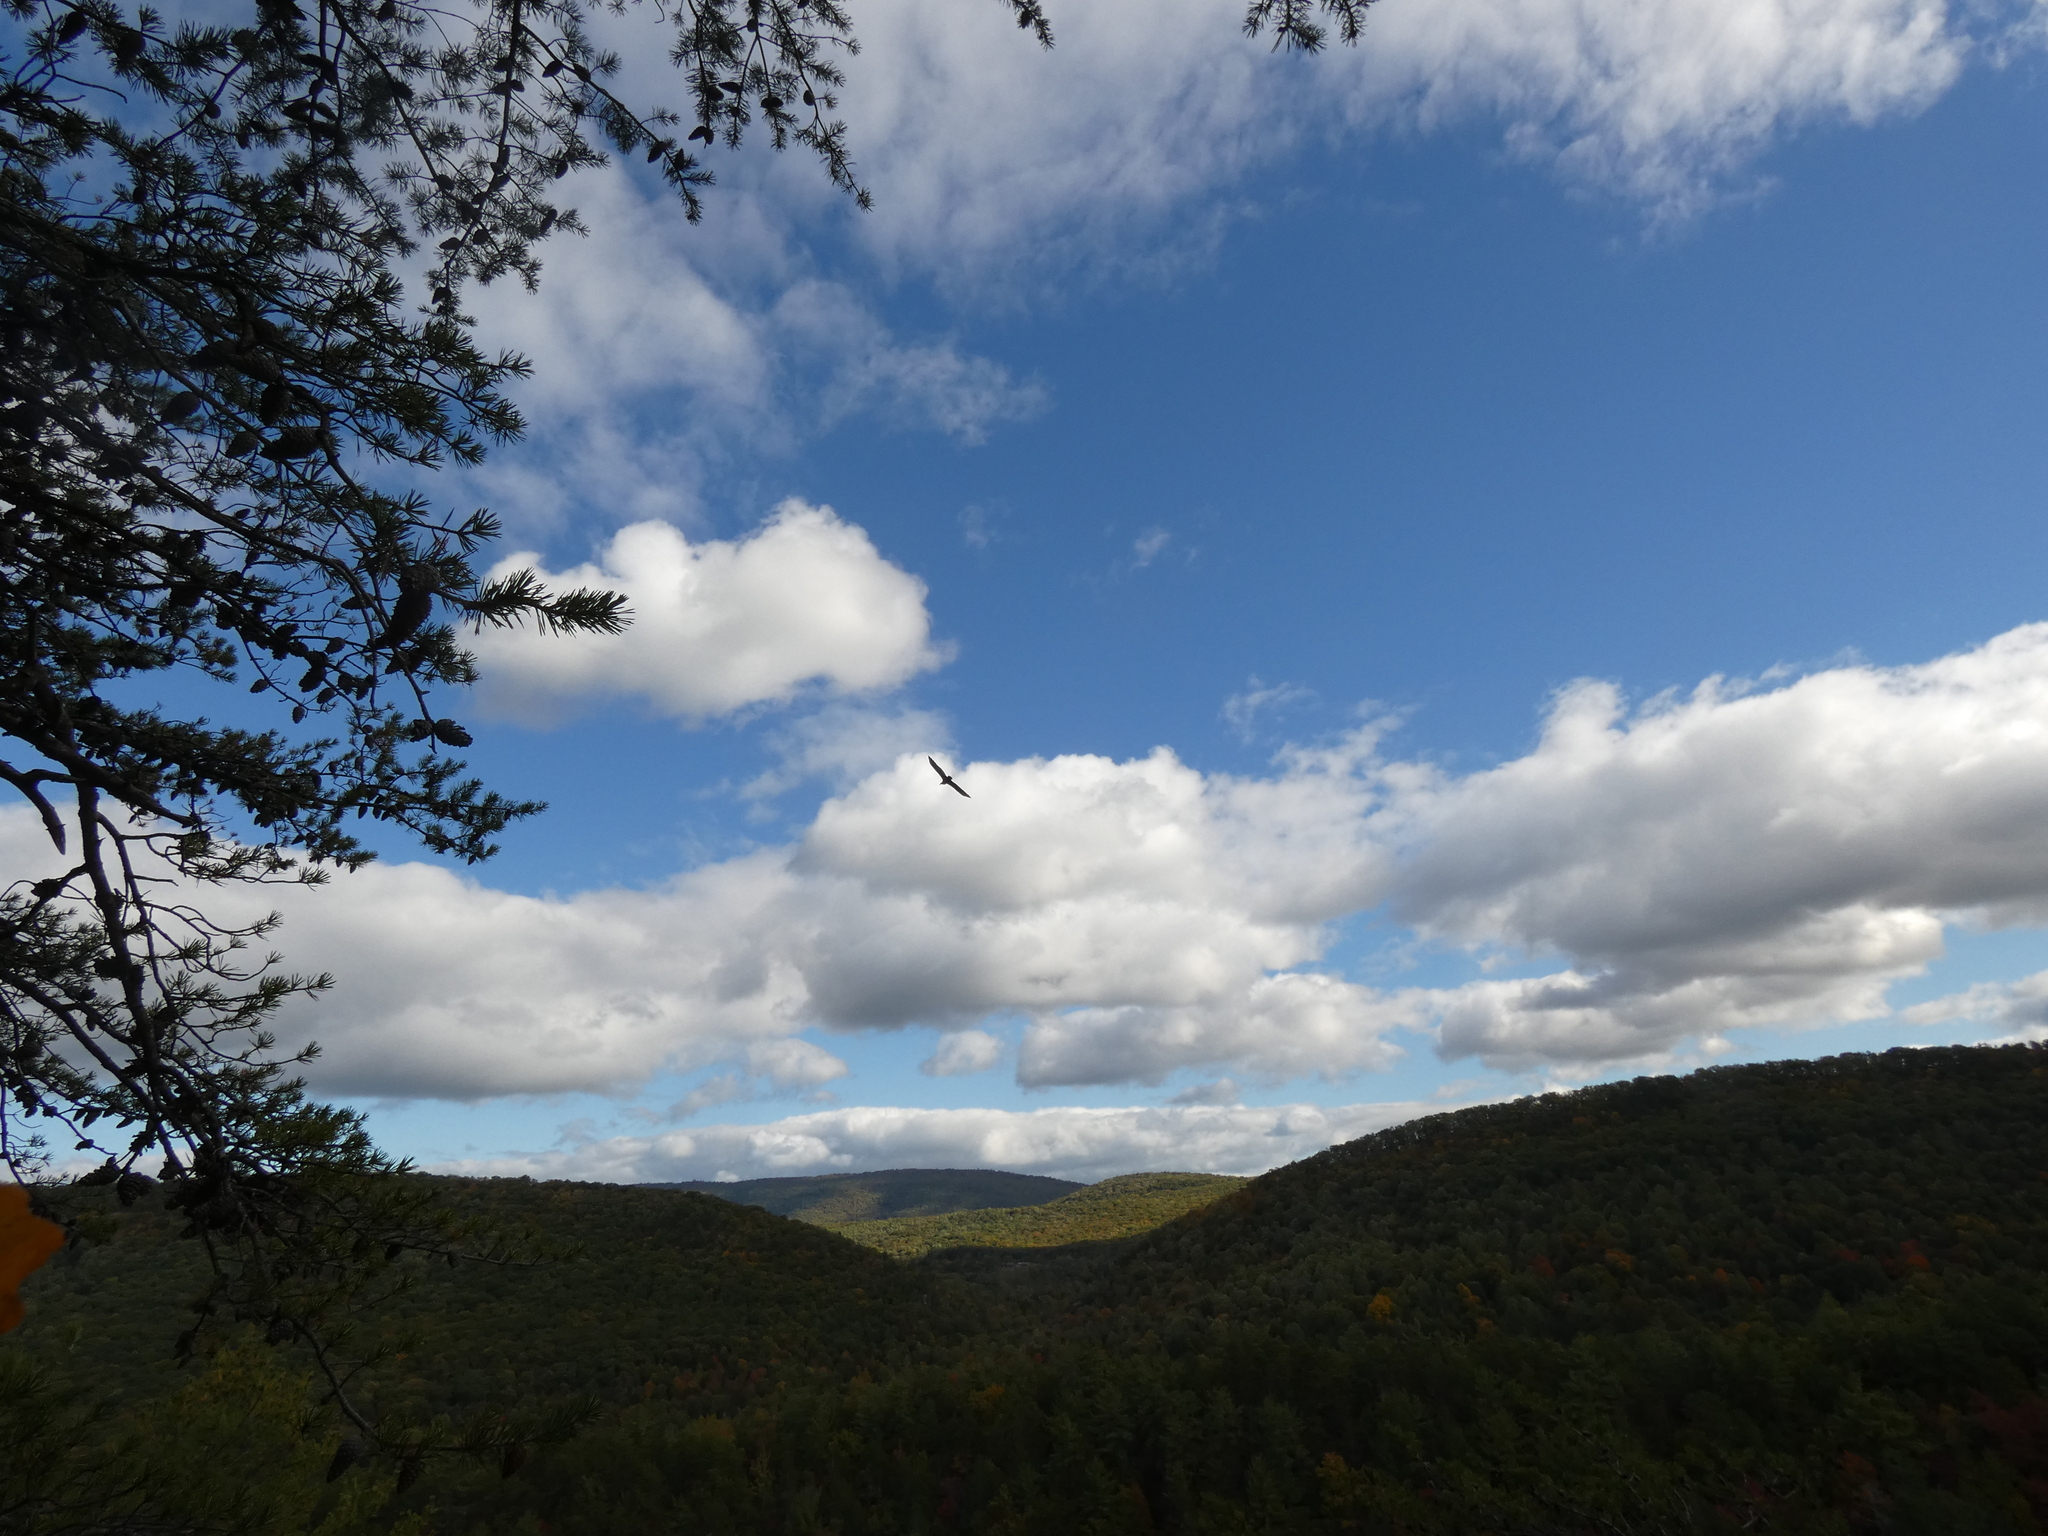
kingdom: Animalia
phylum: Chordata
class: Aves
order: Accipitriformes
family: Cathartidae
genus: Cathartes
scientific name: Cathartes aura
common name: Turkey vulture
